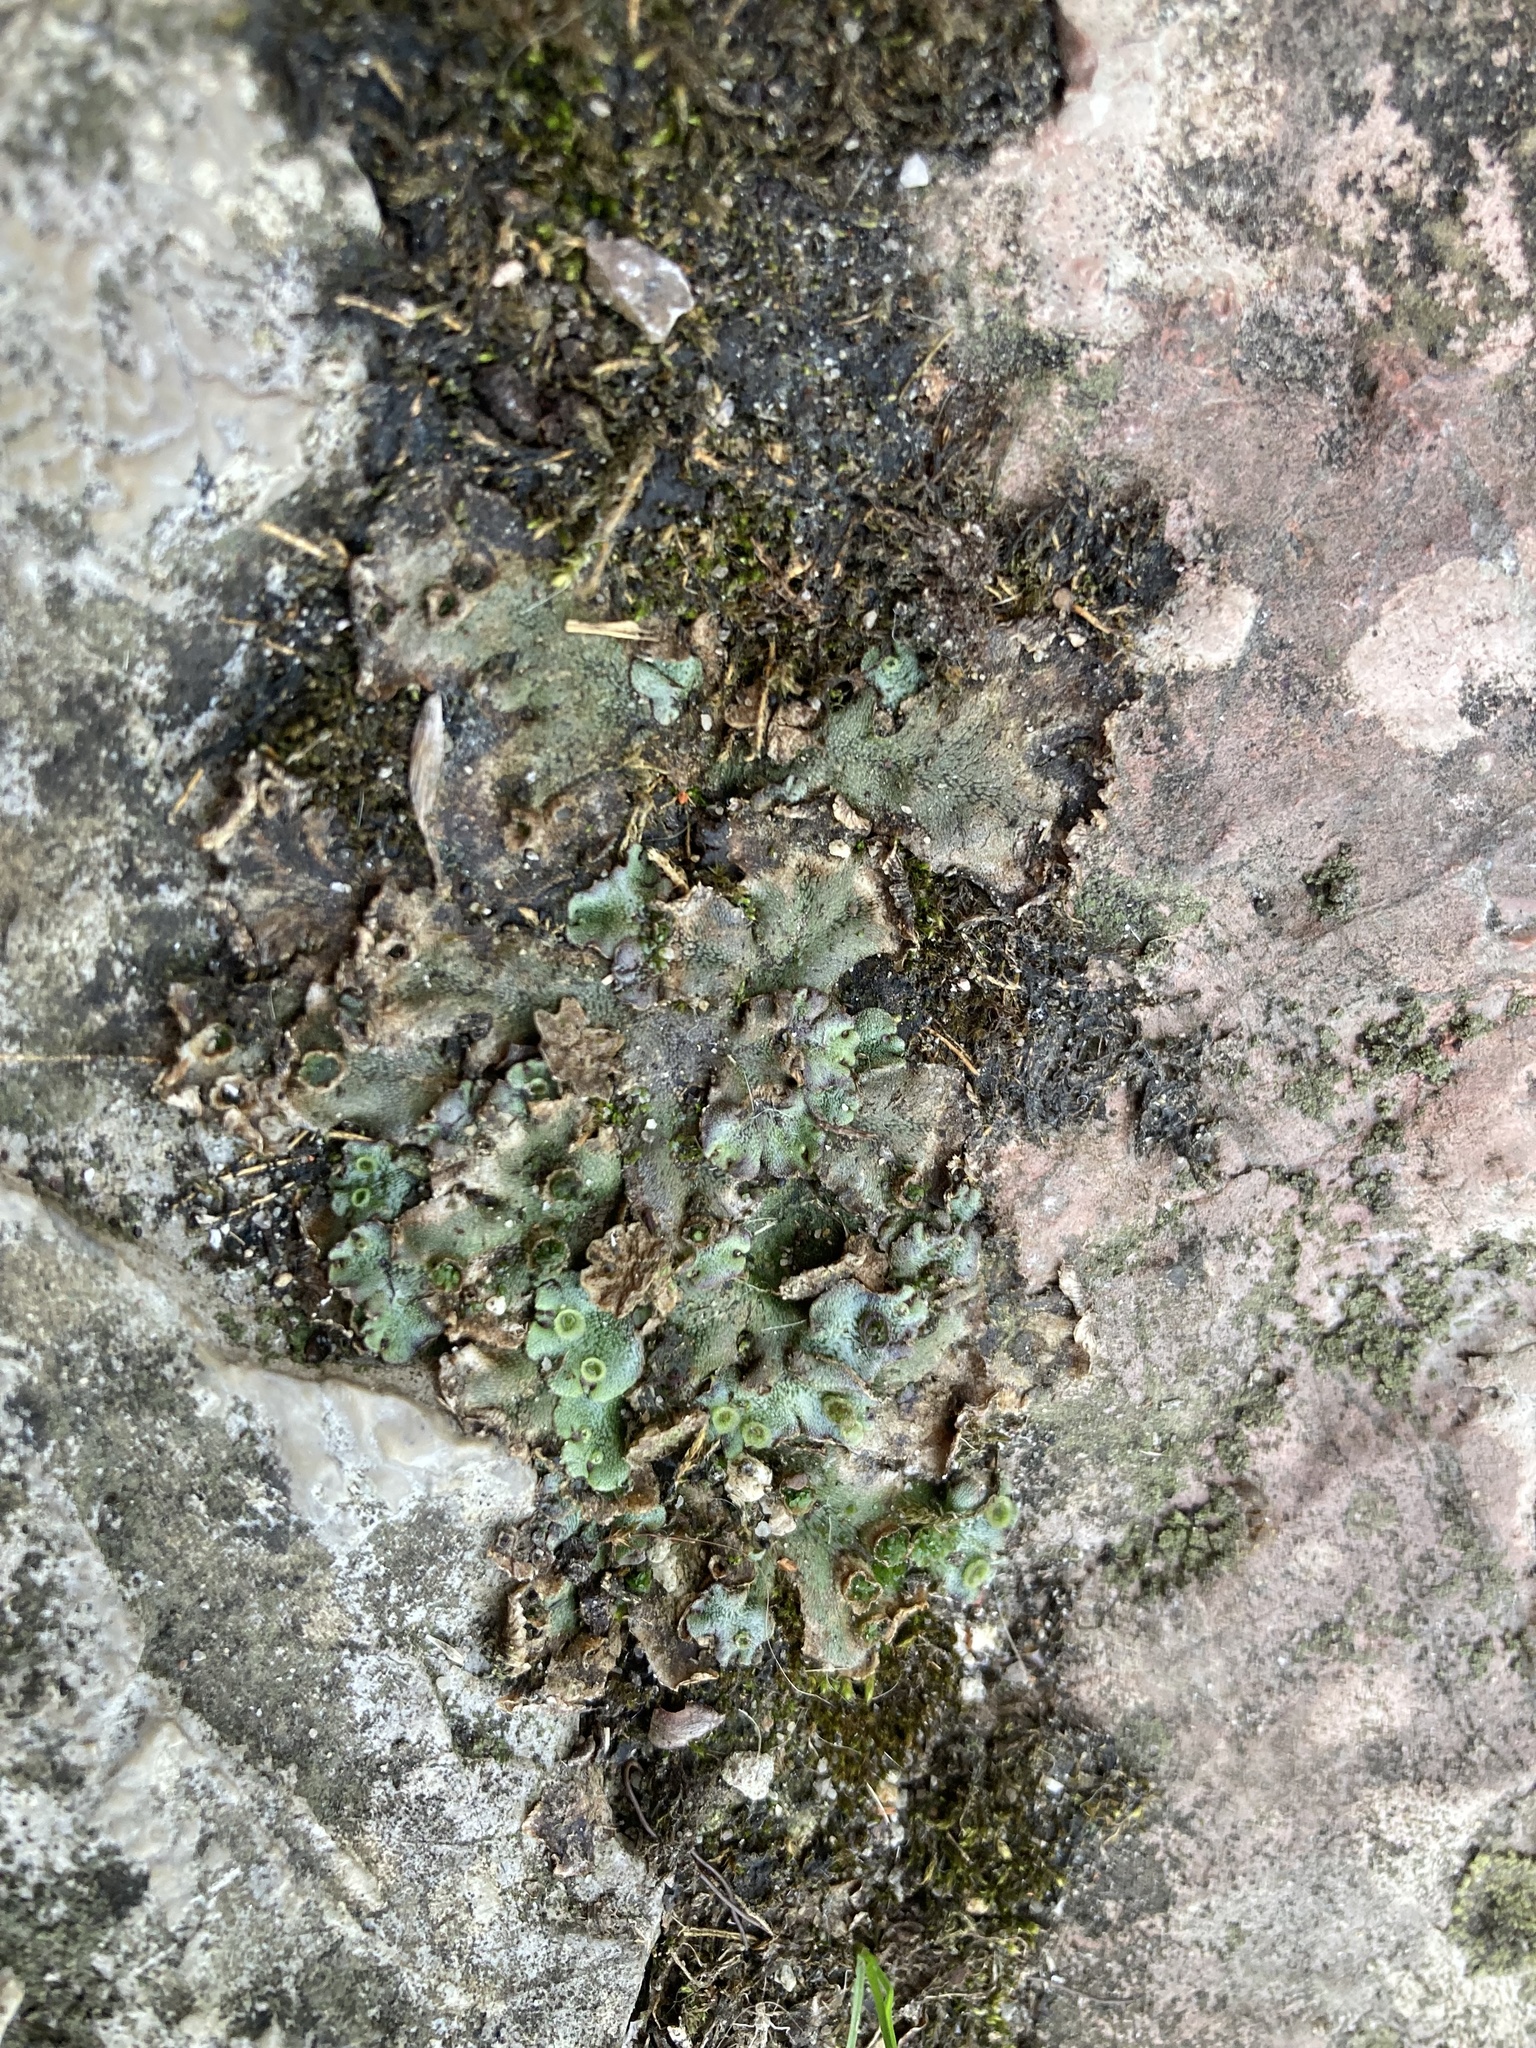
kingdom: Plantae
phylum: Marchantiophyta
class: Marchantiopsida
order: Marchantiales
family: Marchantiaceae
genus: Marchantia
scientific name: Marchantia polymorpha
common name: Common liverwort
